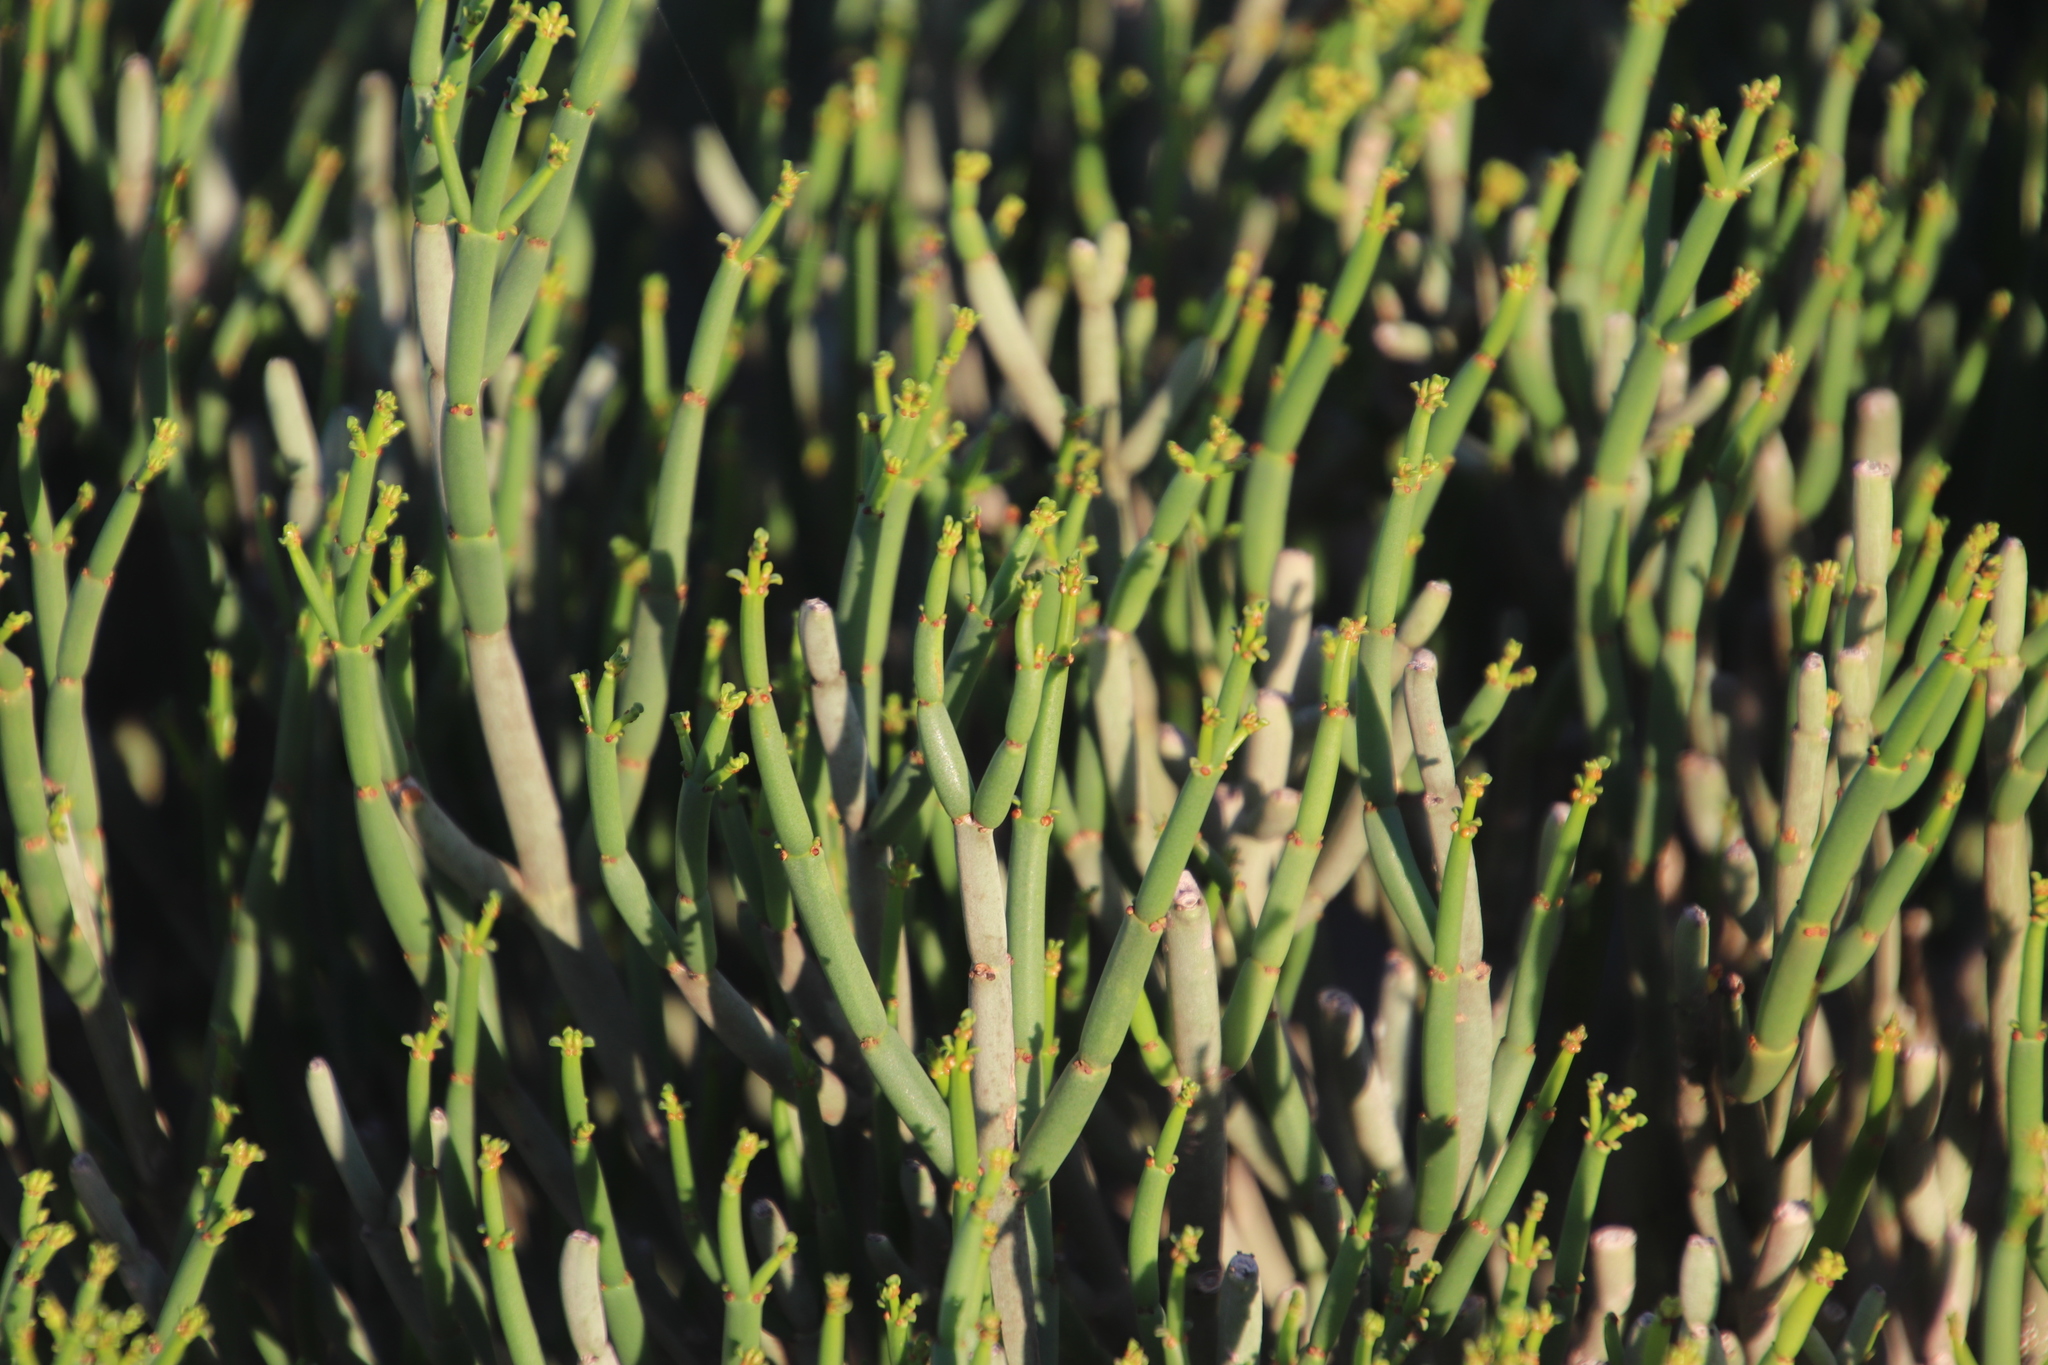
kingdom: Plantae
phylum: Tracheophyta
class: Magnoliopsida
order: Malpighiales
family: Euphorbiaceae
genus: Euphorbia
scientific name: Euphorbia burmanni
